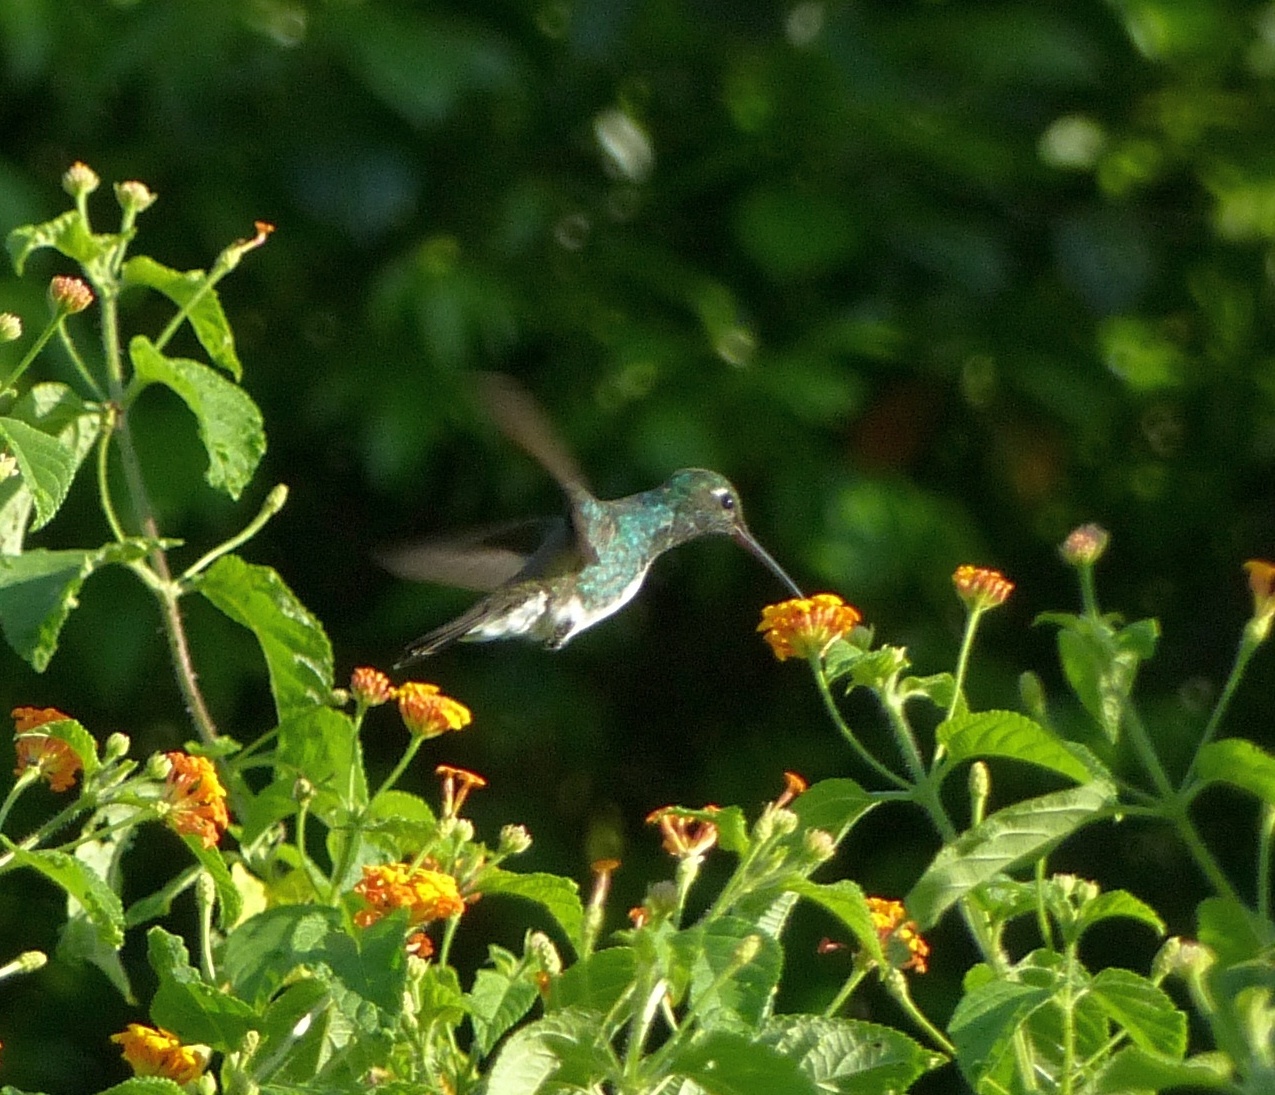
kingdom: Animalia
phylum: Chordata
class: Aves
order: Apodiformes
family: Trochilidae
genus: Chionomesa
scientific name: Chionomesa fimbriata
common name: Glittering-throated emerald
